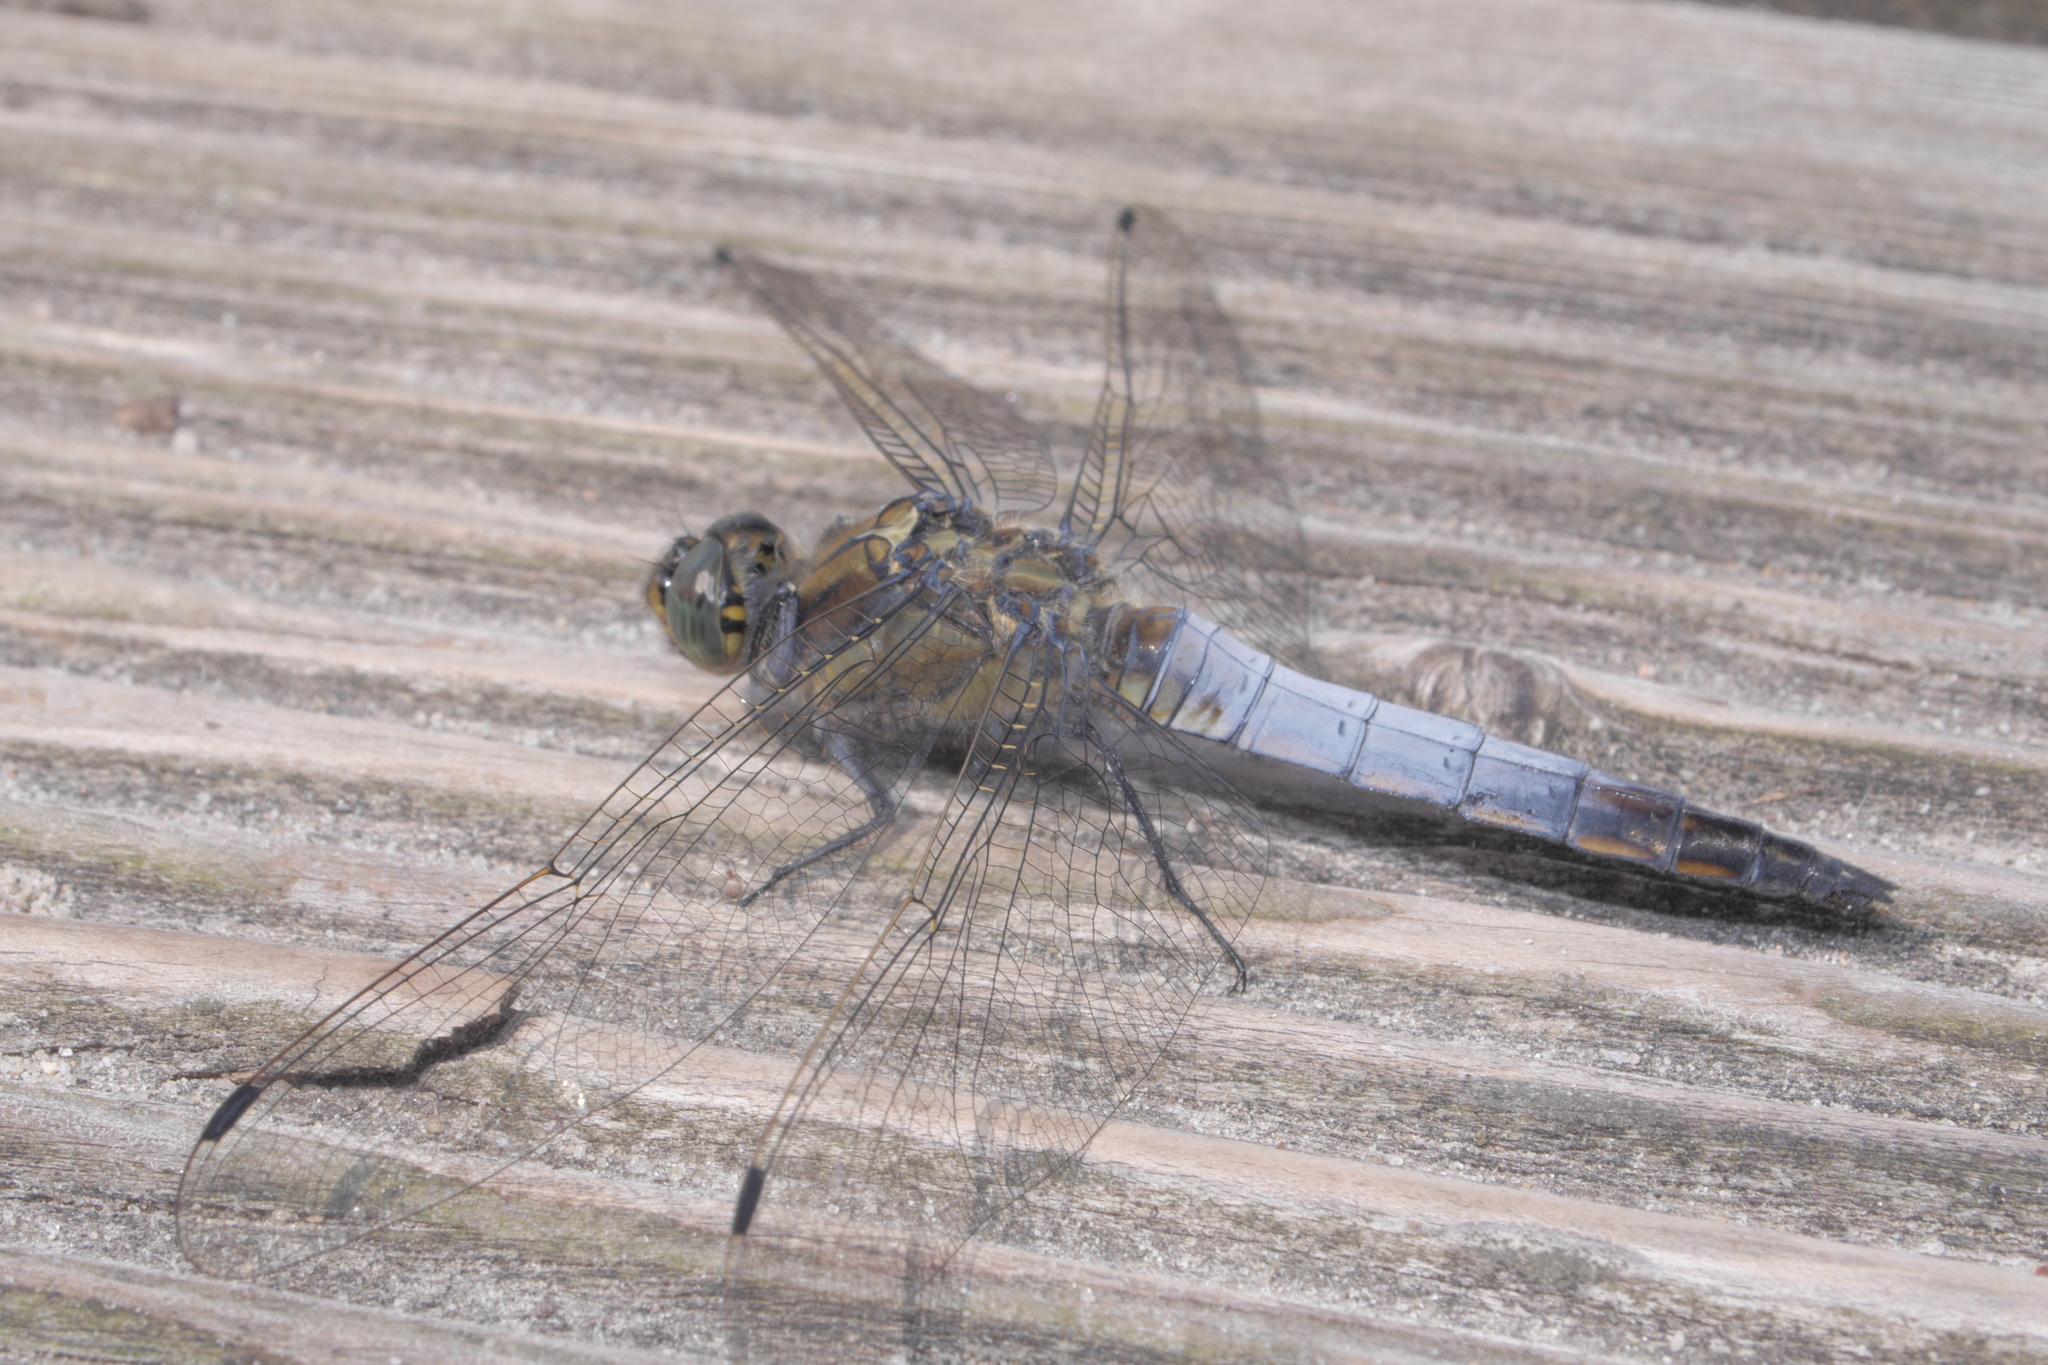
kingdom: Animalia
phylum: Arthropoda
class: Insecta
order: Odonata
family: Libellulidae
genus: Orthetrum
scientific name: Orthetrum cancellatum
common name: Black-tailed skimmer
